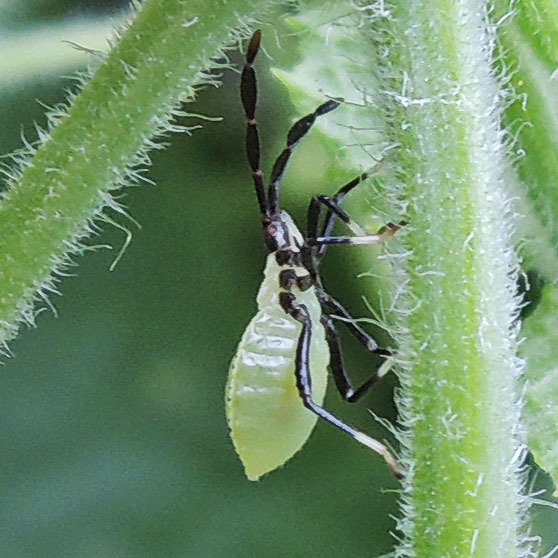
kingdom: Animalia
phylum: Arthropoda
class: Insecta
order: Hemiptera
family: Coreidae
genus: Anasa
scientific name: Anasa repetita
